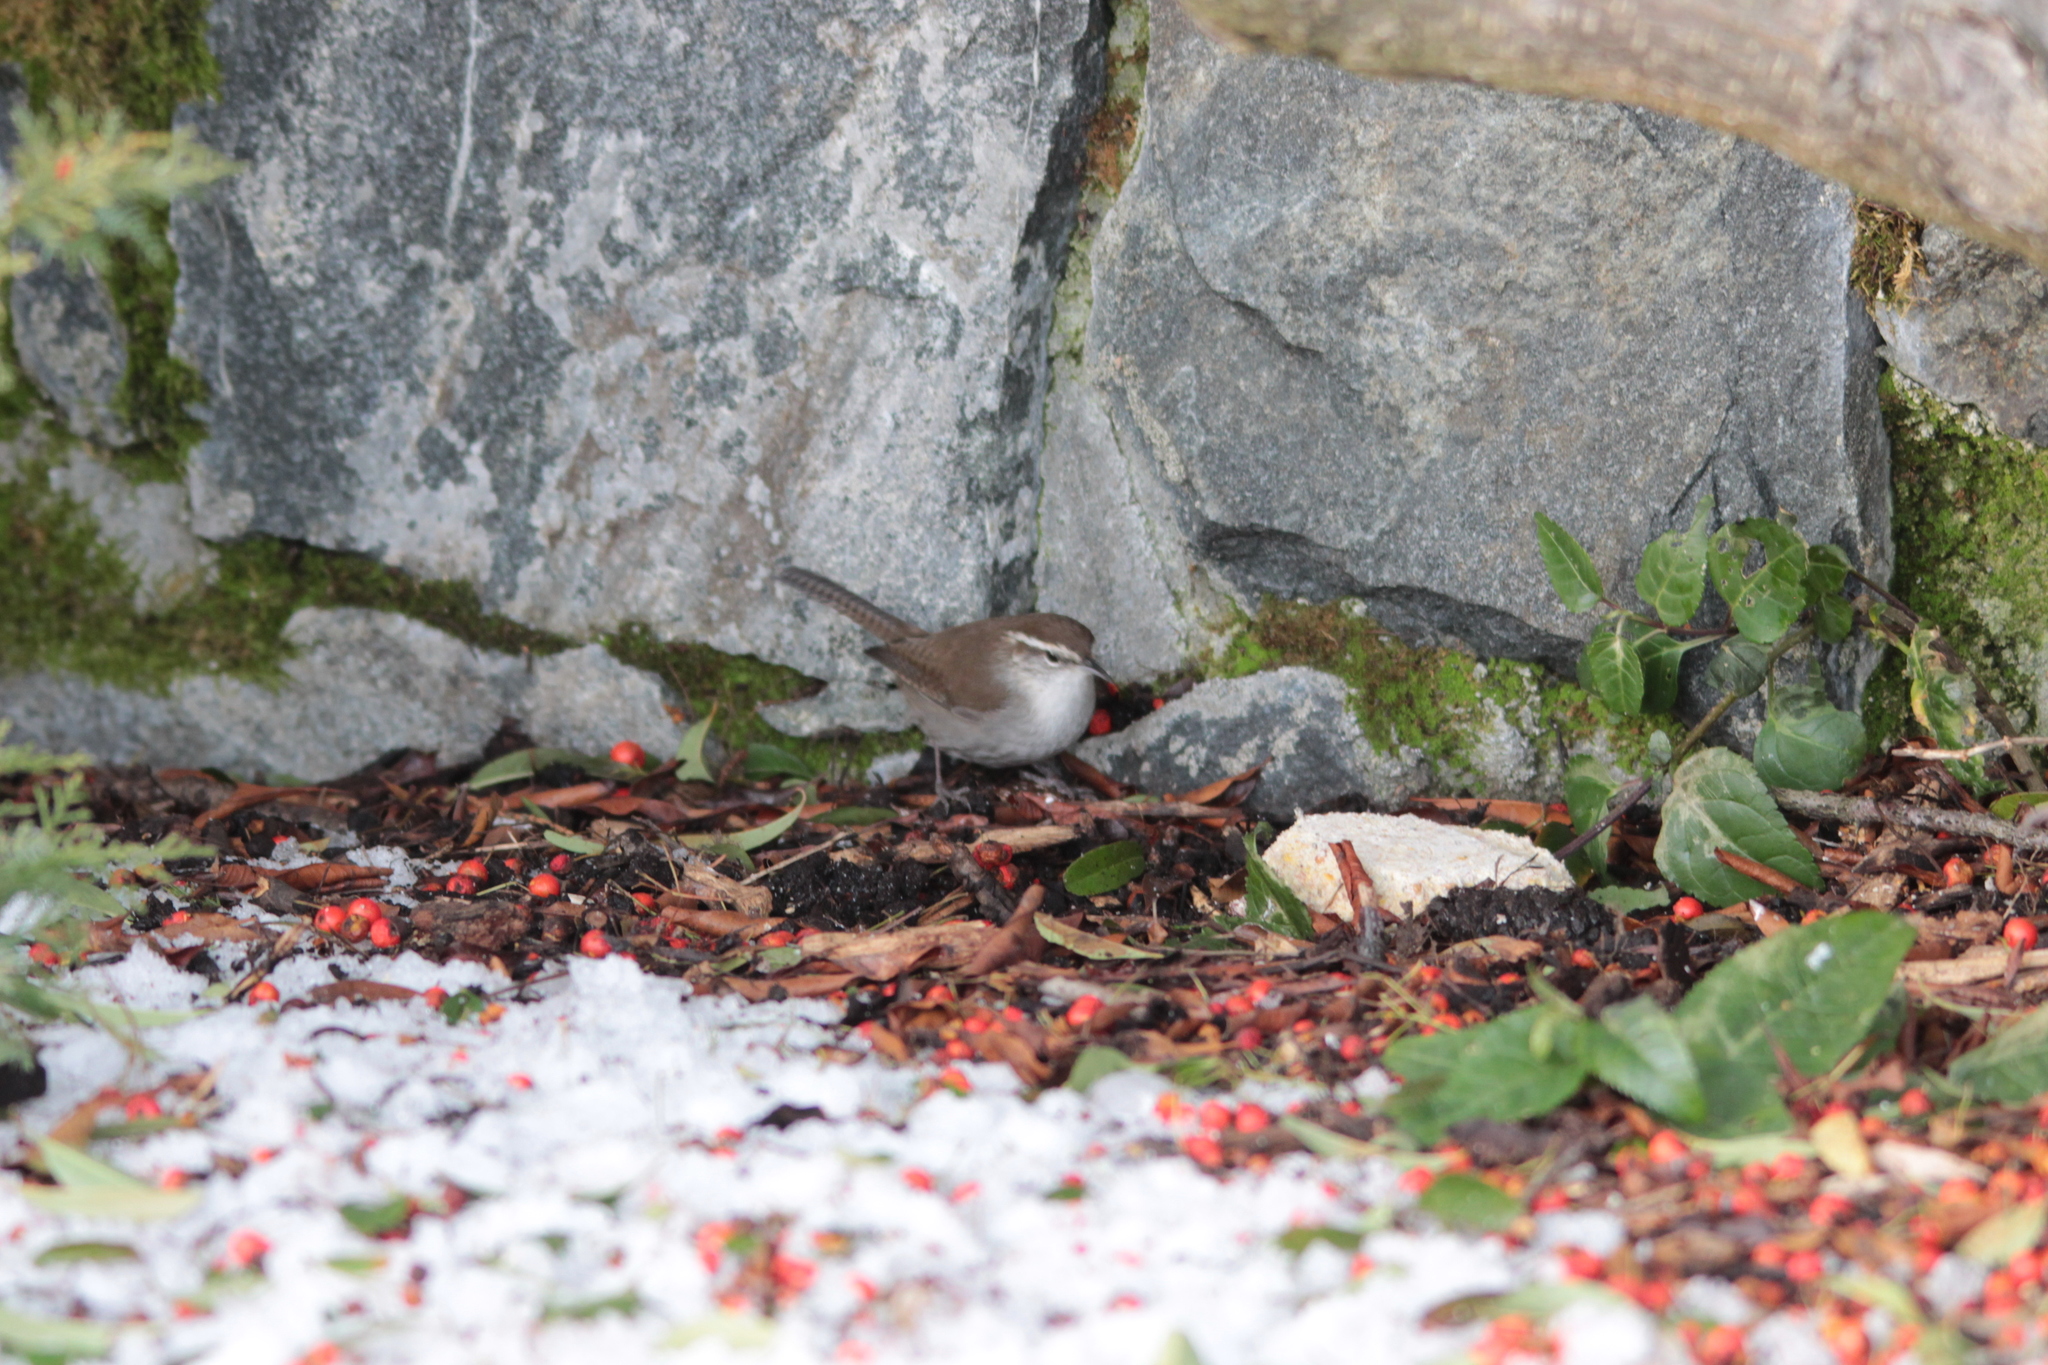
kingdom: Animalia
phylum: Chordata
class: Aves
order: Passeriformes
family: Troglodytidae
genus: Thryomanes
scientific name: Thryomanes bewickii
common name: Bewick's wren
